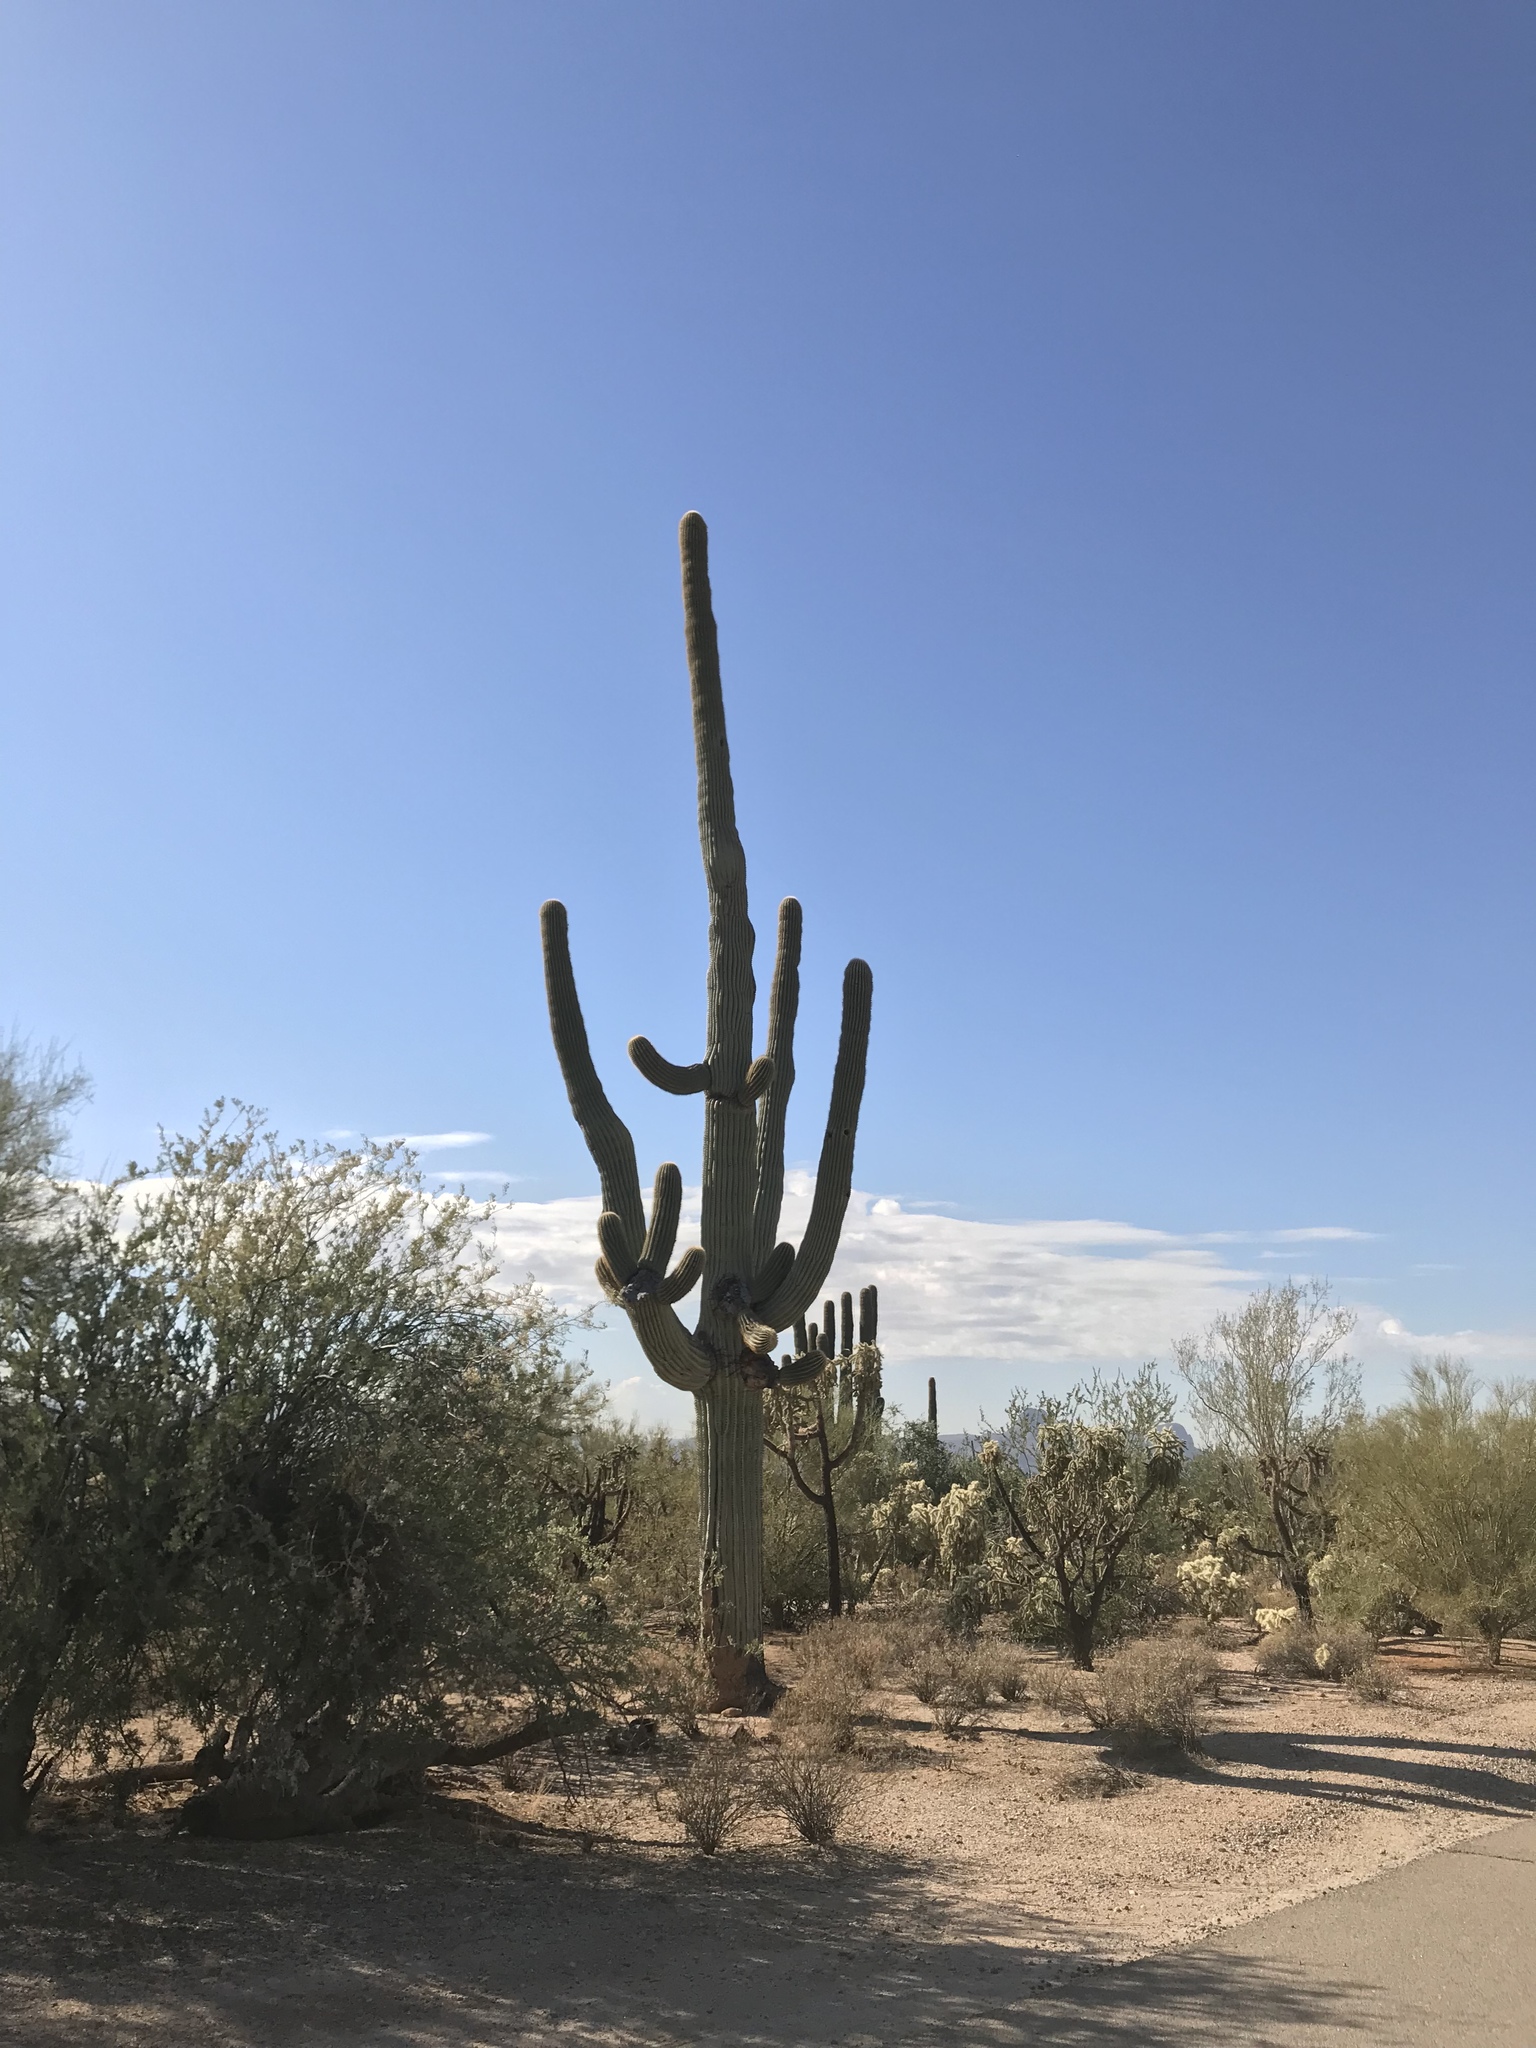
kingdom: Plantae
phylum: Tracheophyta
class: Magnoliopsida
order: Caryophyllales
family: Cactaceae
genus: Carnegiea
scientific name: Carnegiea gigantea
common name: Saguaro
